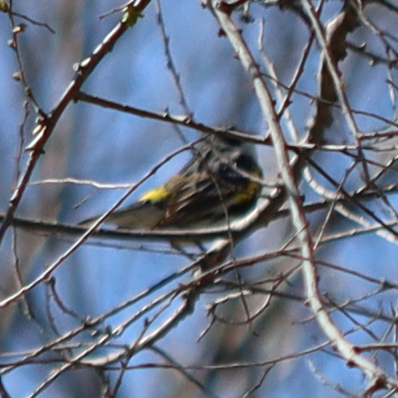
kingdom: Animalia
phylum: Chordata
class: Aves
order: Passeriformes
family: Parulidae
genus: Setophaga
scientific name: Setophaga coronata
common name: Myrtle warbler
